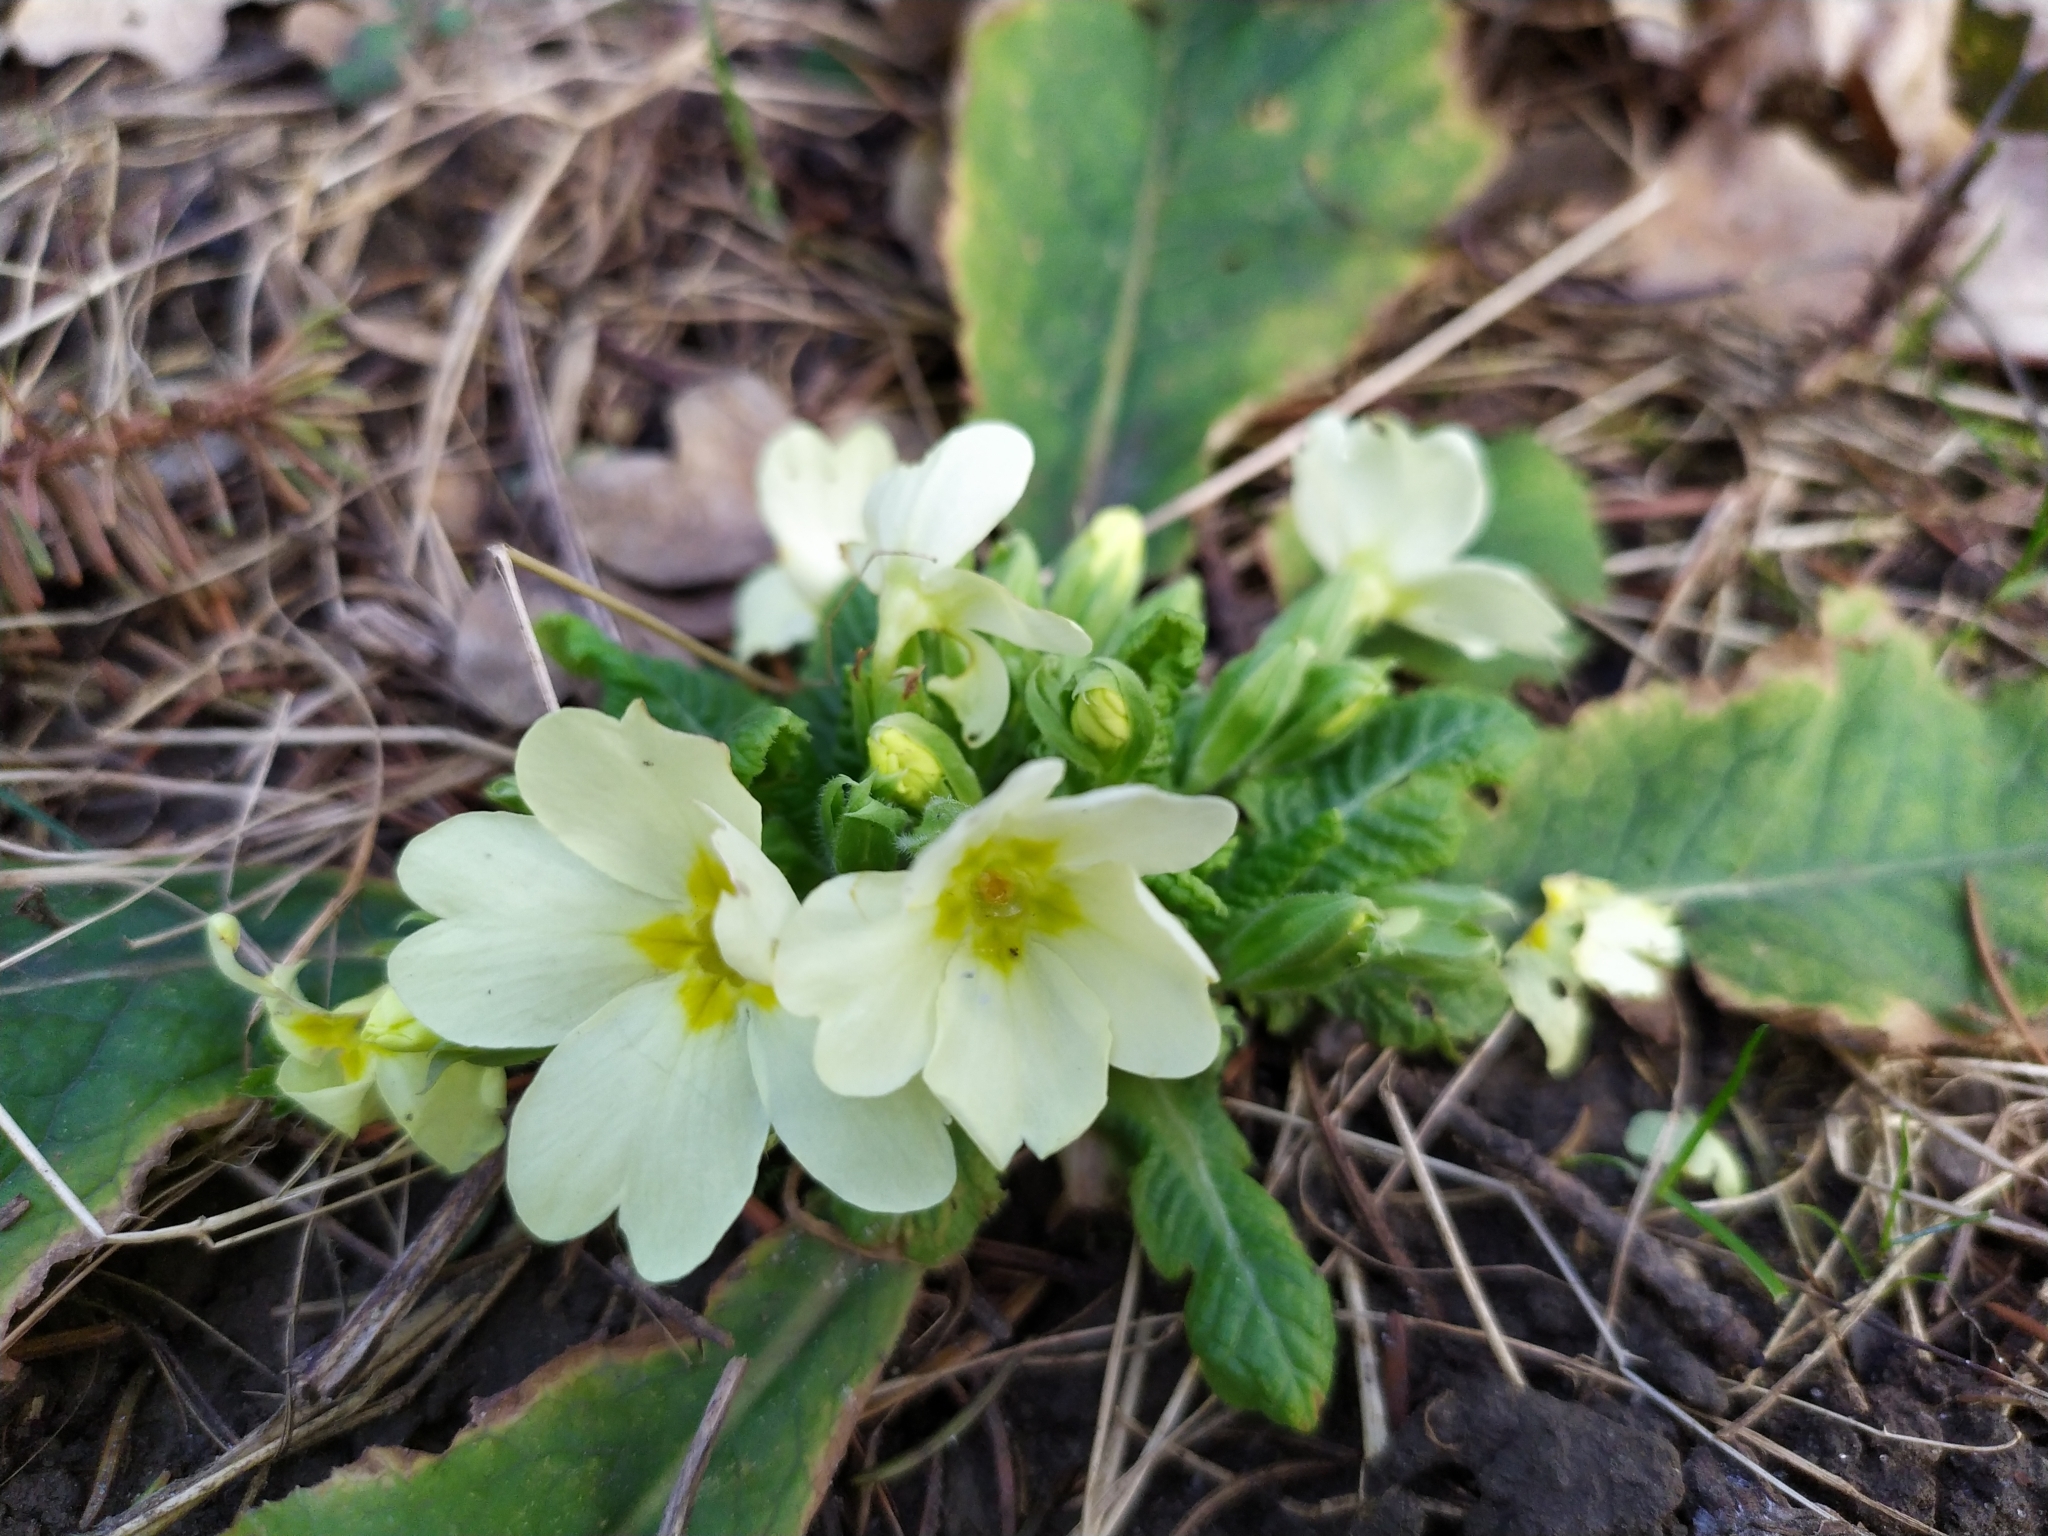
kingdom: Plantae
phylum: Tracheophyta
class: Magnoliopsida
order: Ericales
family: Primulaceae
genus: Primula
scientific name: Primula vulgaris
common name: Primrose
